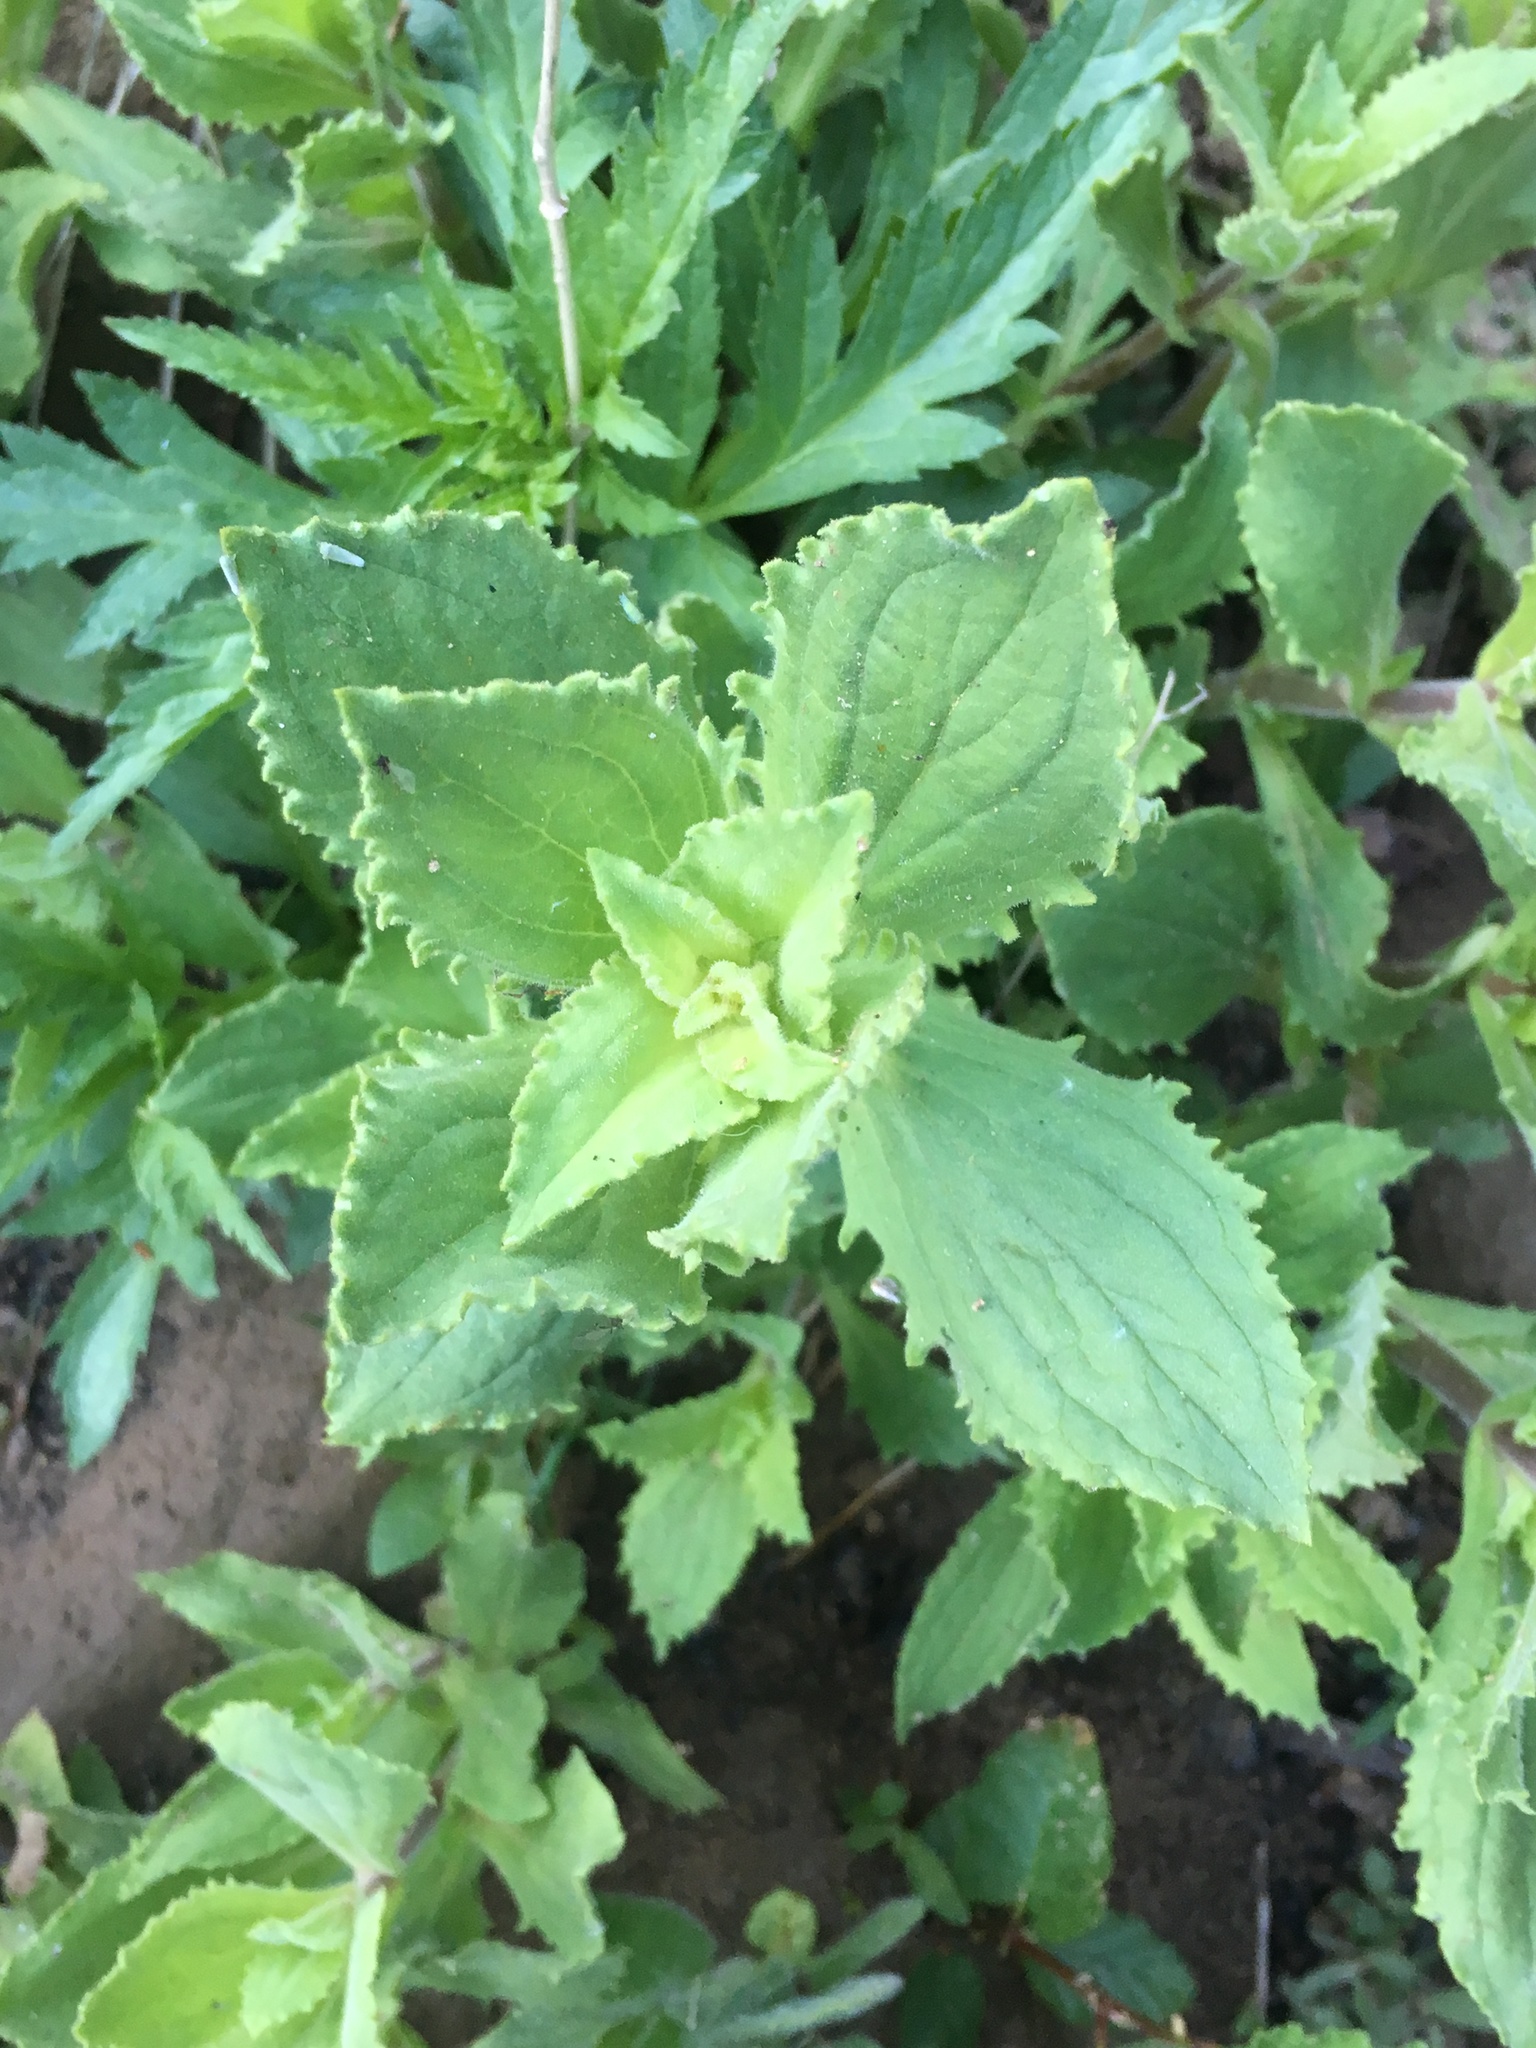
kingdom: Plantae
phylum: Tracheophyta
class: Magnoliopsida
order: Lamiales
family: Phrymaceae
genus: Erythranthe
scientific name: Erythranthe cardinalis
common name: Scarlet monkey-flower
